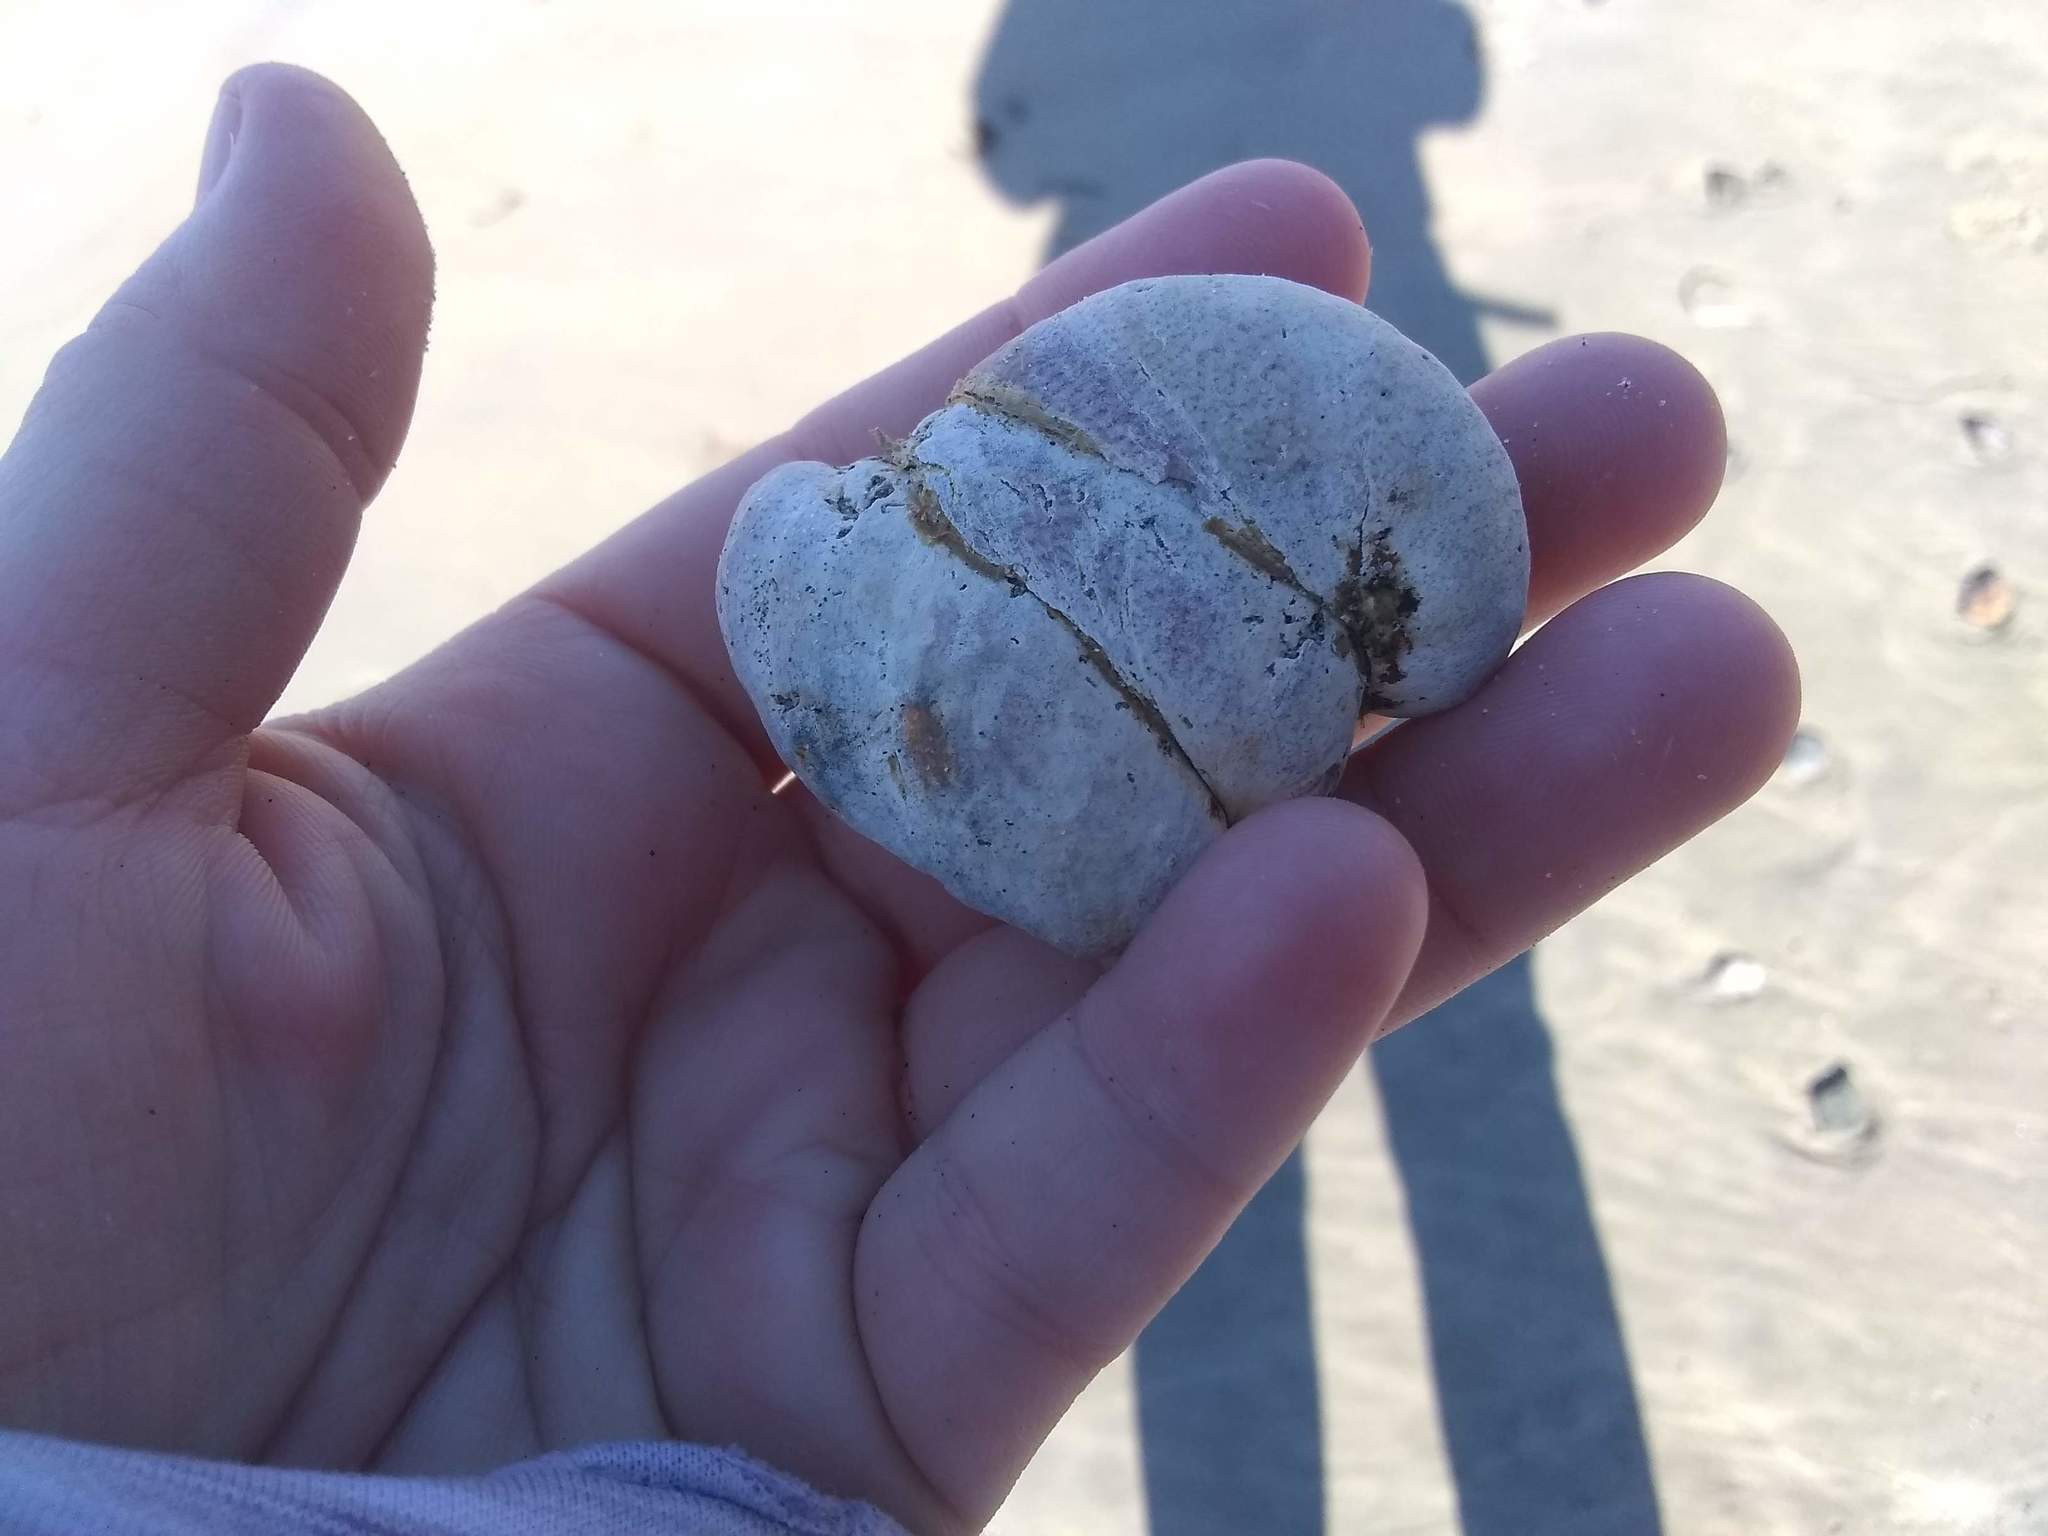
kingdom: Animalia
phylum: Mollusca
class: Gastropoda
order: Littorinimorpha
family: Calyptraeidae
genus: Crepidula
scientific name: Crepidula fornicata
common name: Slipper limpet
